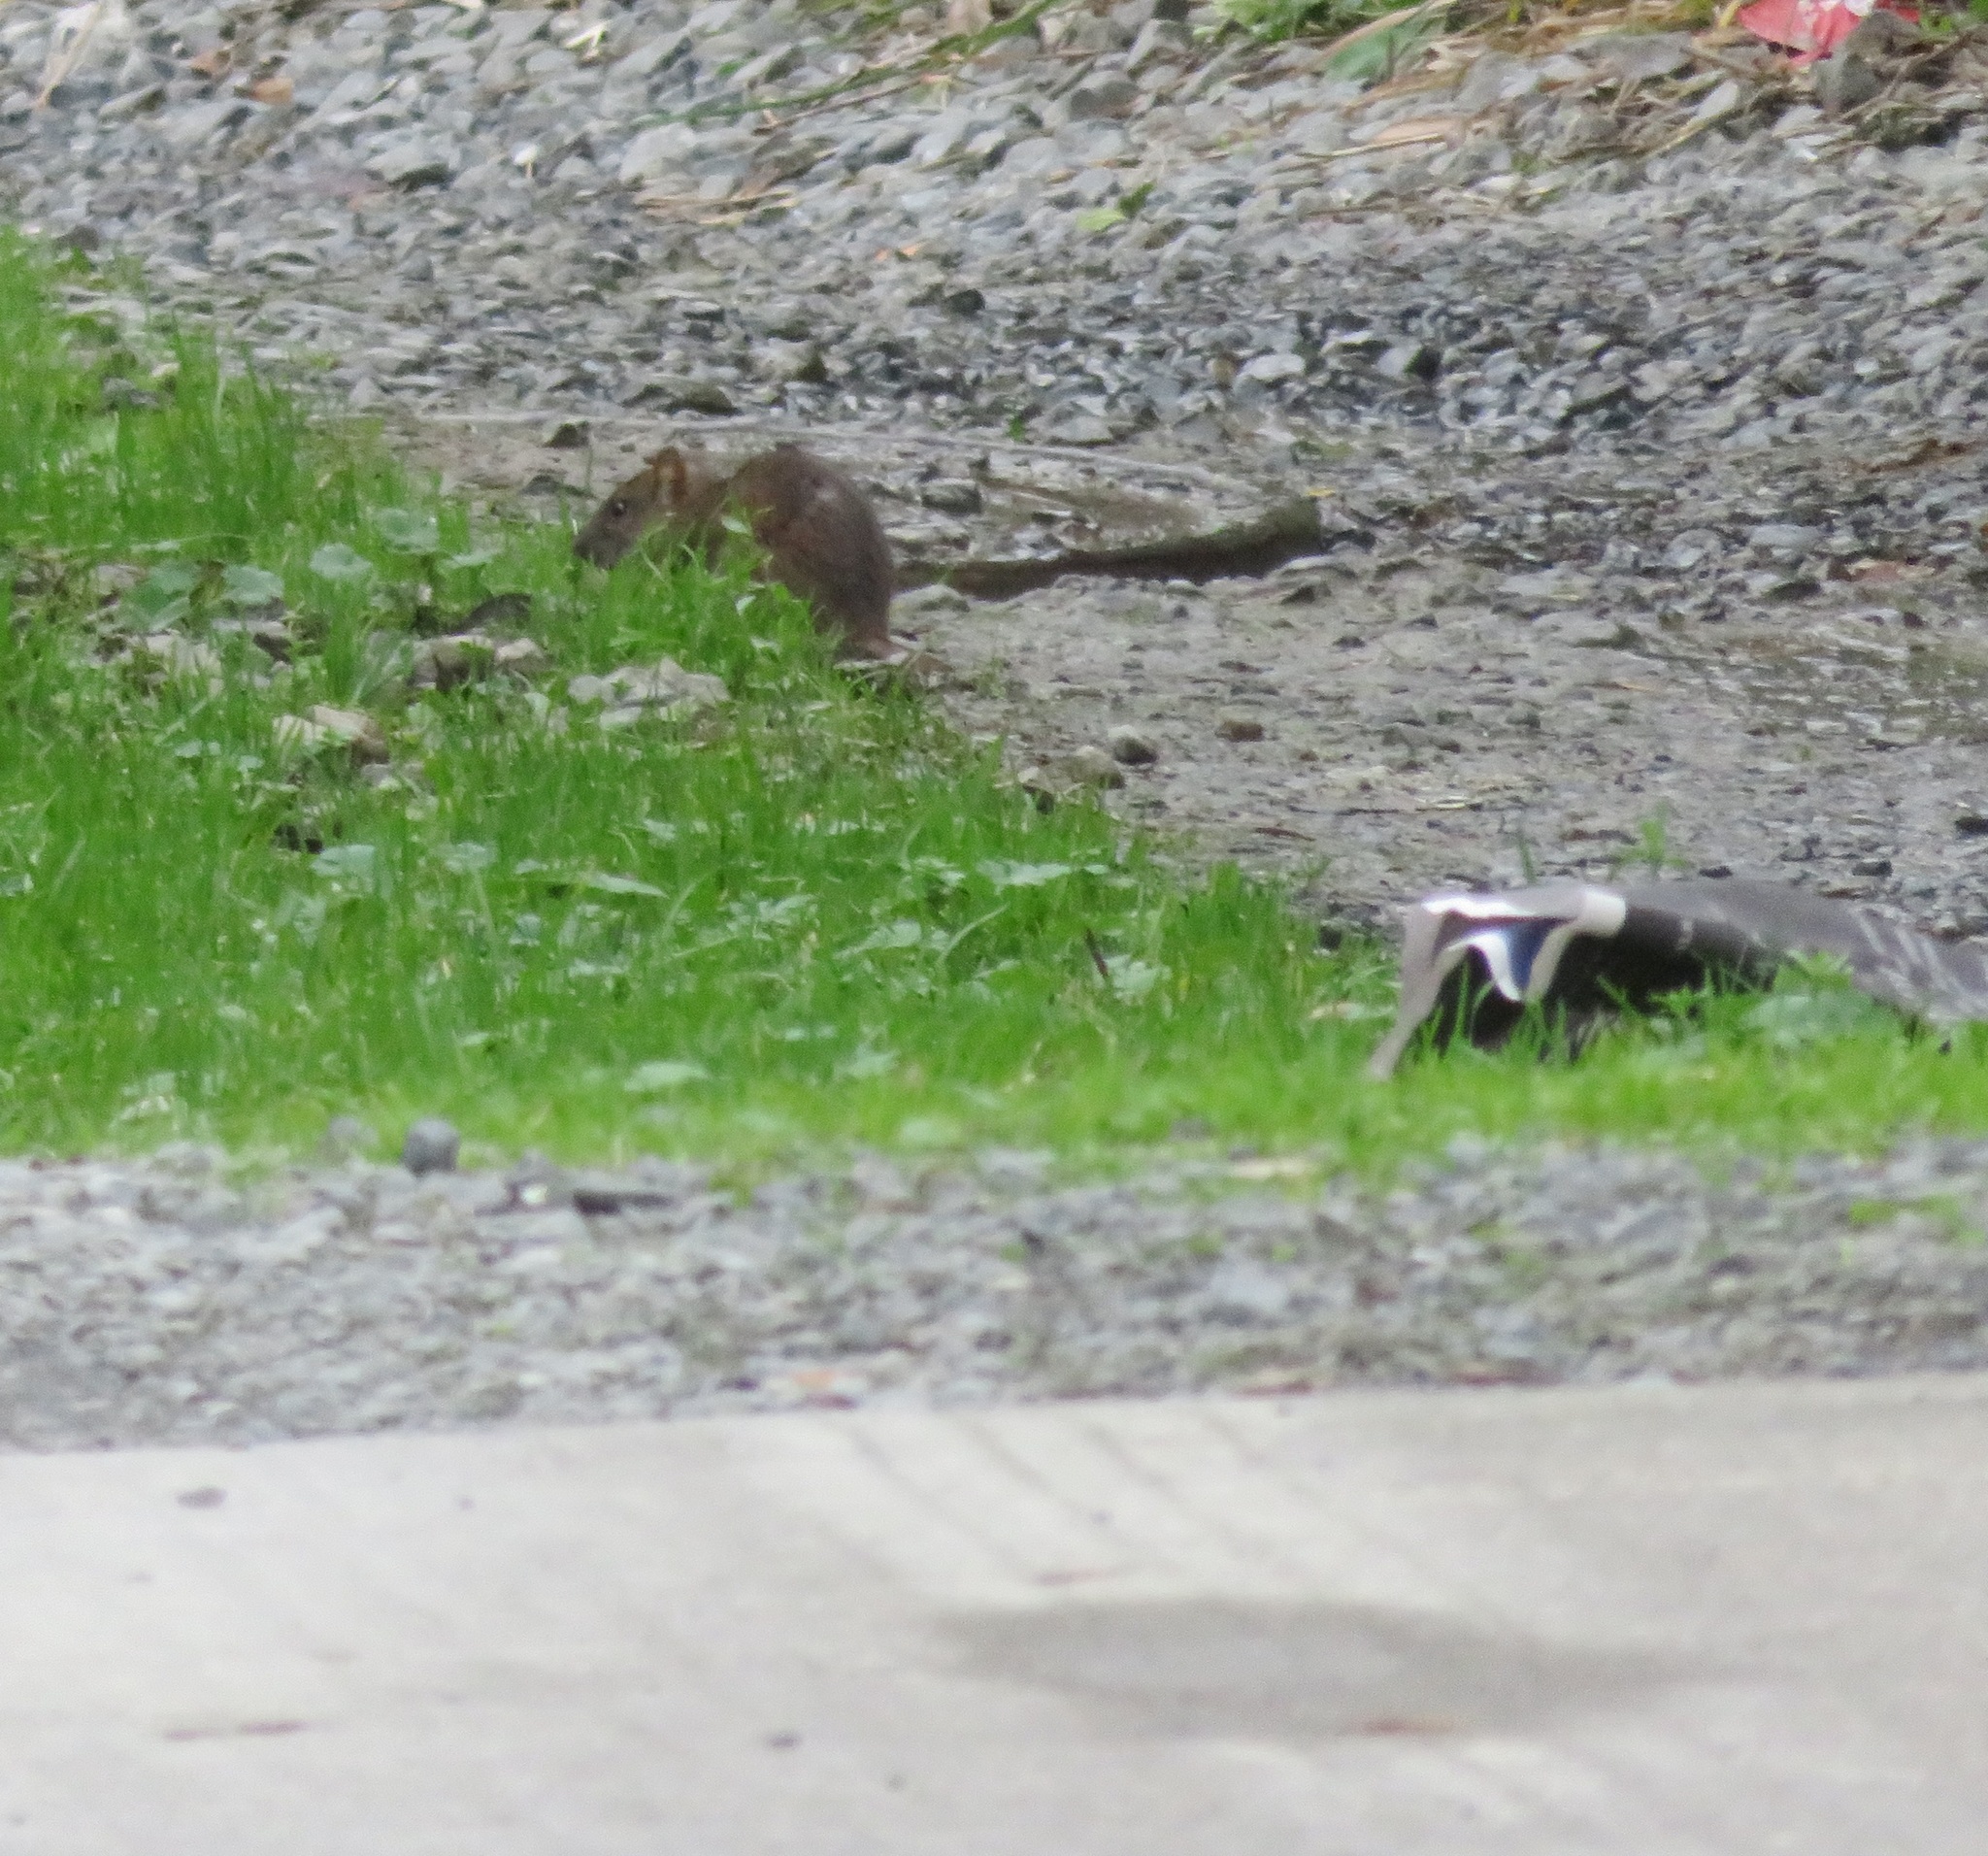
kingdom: Animalia
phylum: Chordata
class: Mammalia
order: Rodentia
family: Muridae
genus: Rattus
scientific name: Rattus norvegicus
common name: Brown rat
